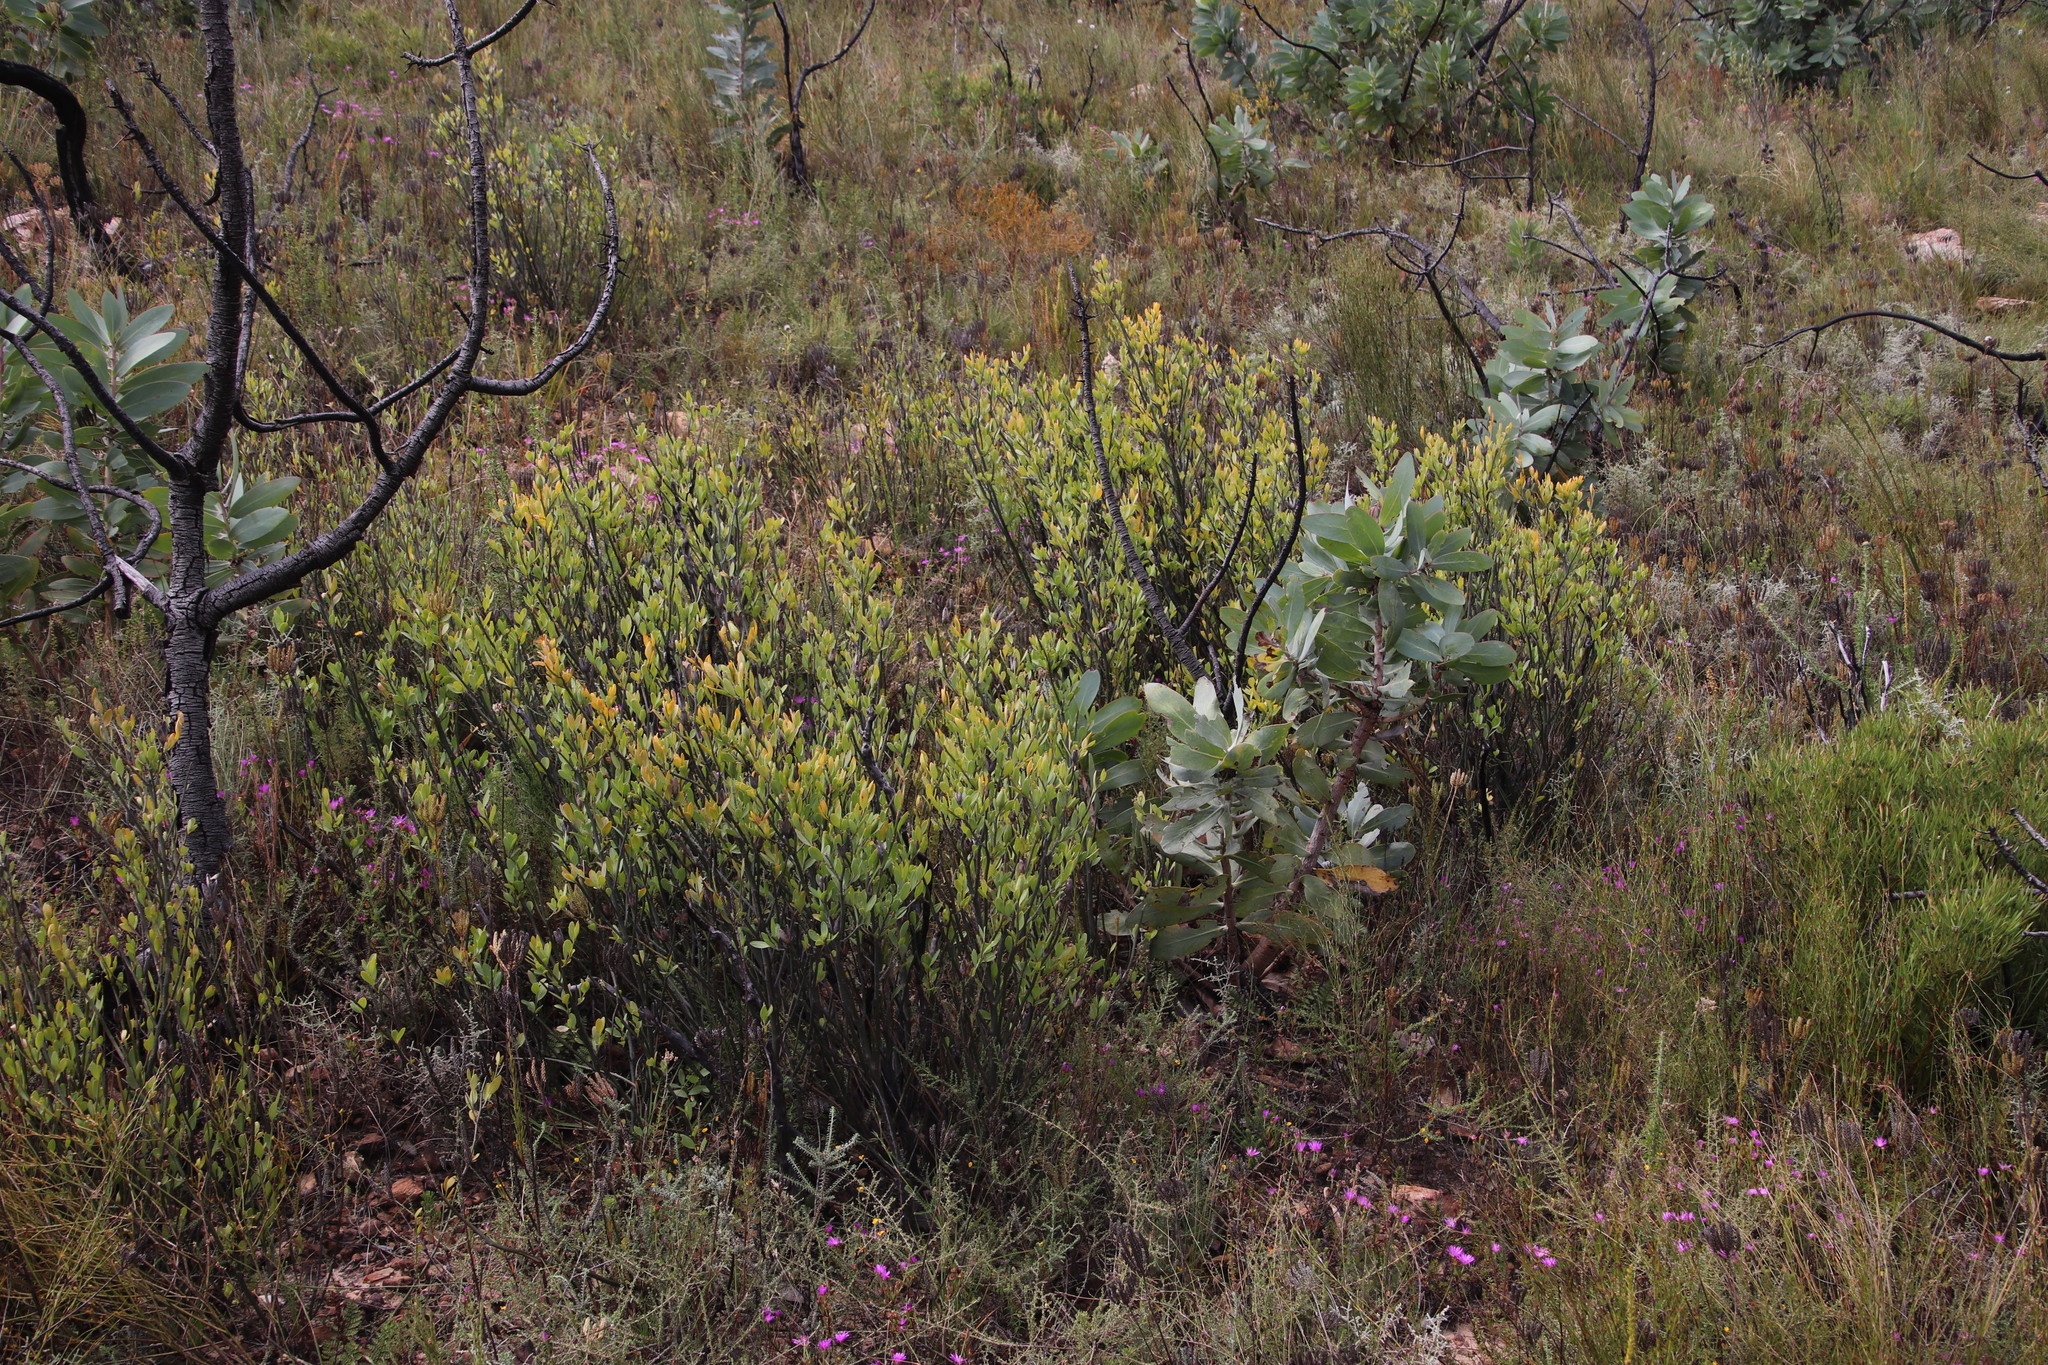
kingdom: Plantae
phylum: Tracheophyta
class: Magnoliopsida
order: Solanales
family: Montiniaceae
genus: Montinia
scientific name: Montinia caryophyllacea
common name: Wild clove-bush
